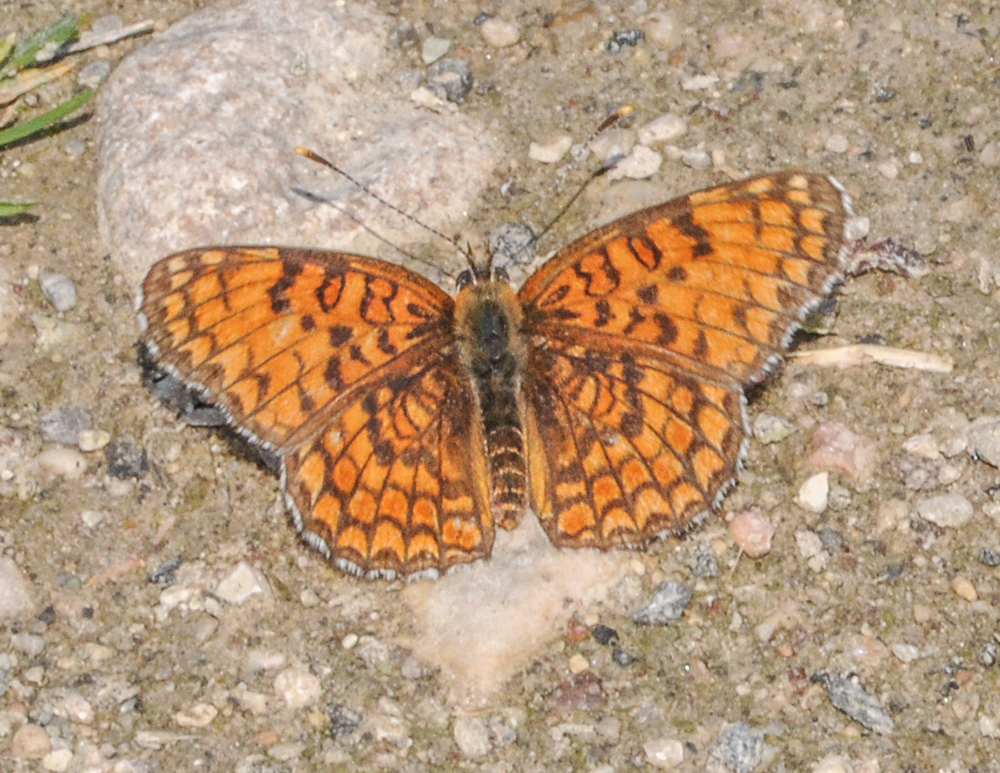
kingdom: Animalia
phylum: Arthropoda
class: Insecta
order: Lepidoptera
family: Nymphalidae
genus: Melitaea
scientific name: Melitaea phoebe
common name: Knapweed fritillary
